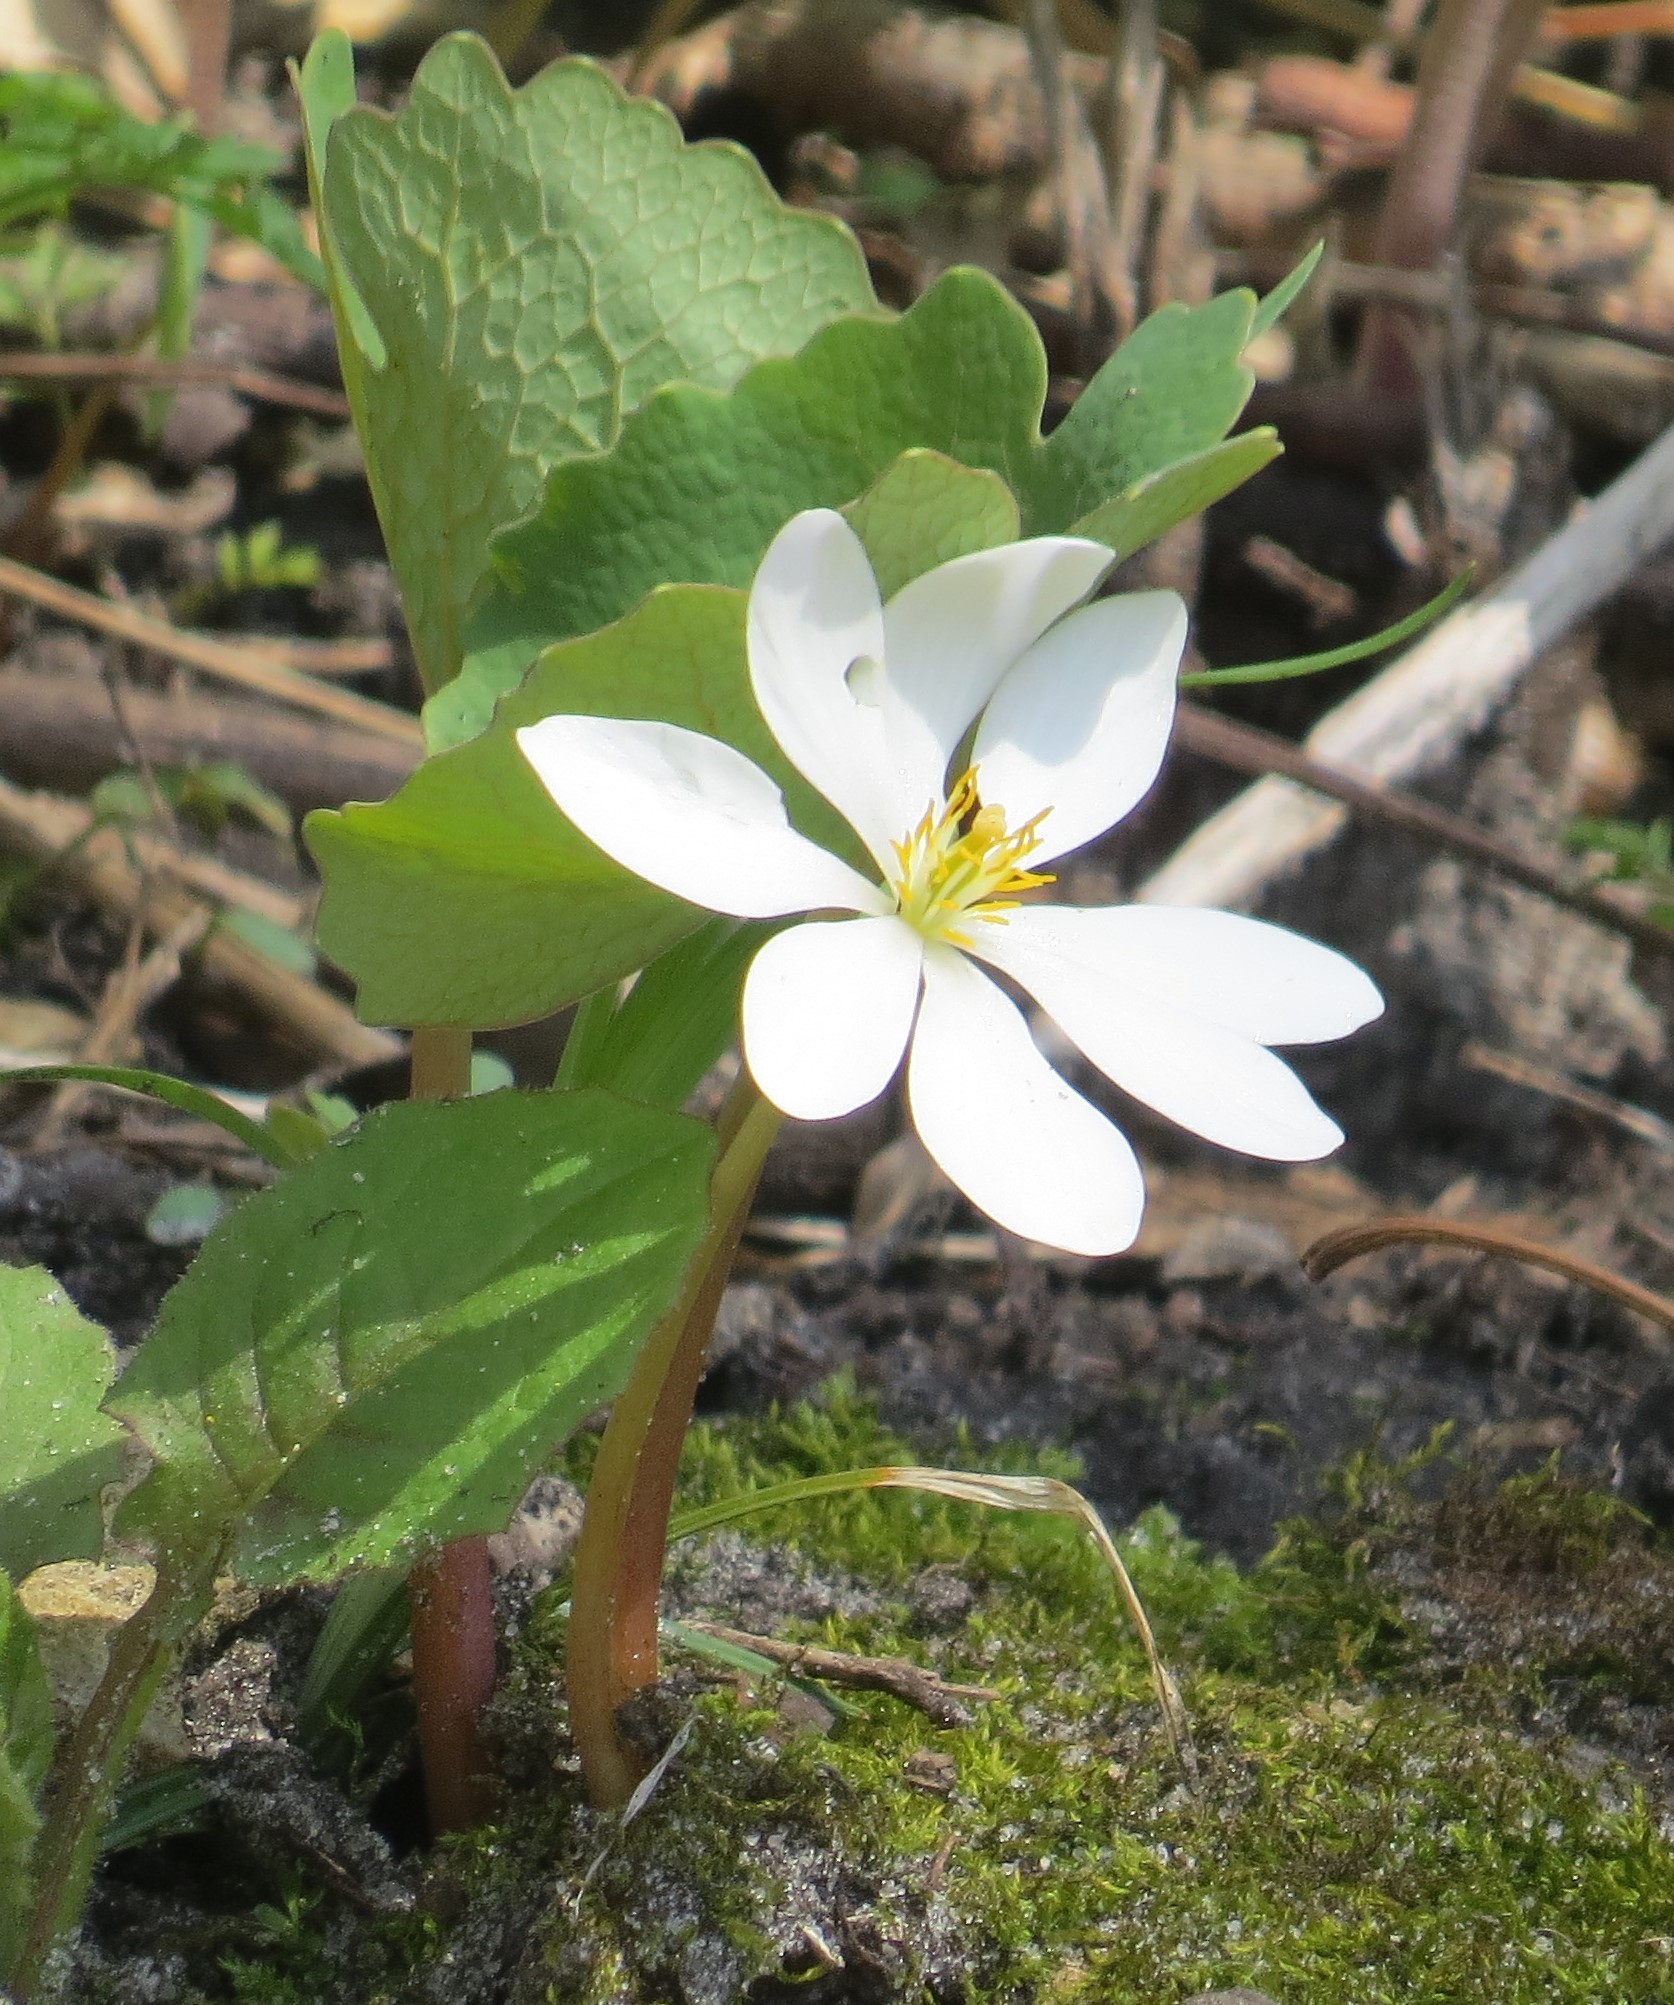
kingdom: Plantae
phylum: Tracheophyta
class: Magnoliopsida
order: Ranunculales
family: Papaveraceae
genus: Sanguinaria
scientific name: Sanguinaria canadensis
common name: Bloodroot
